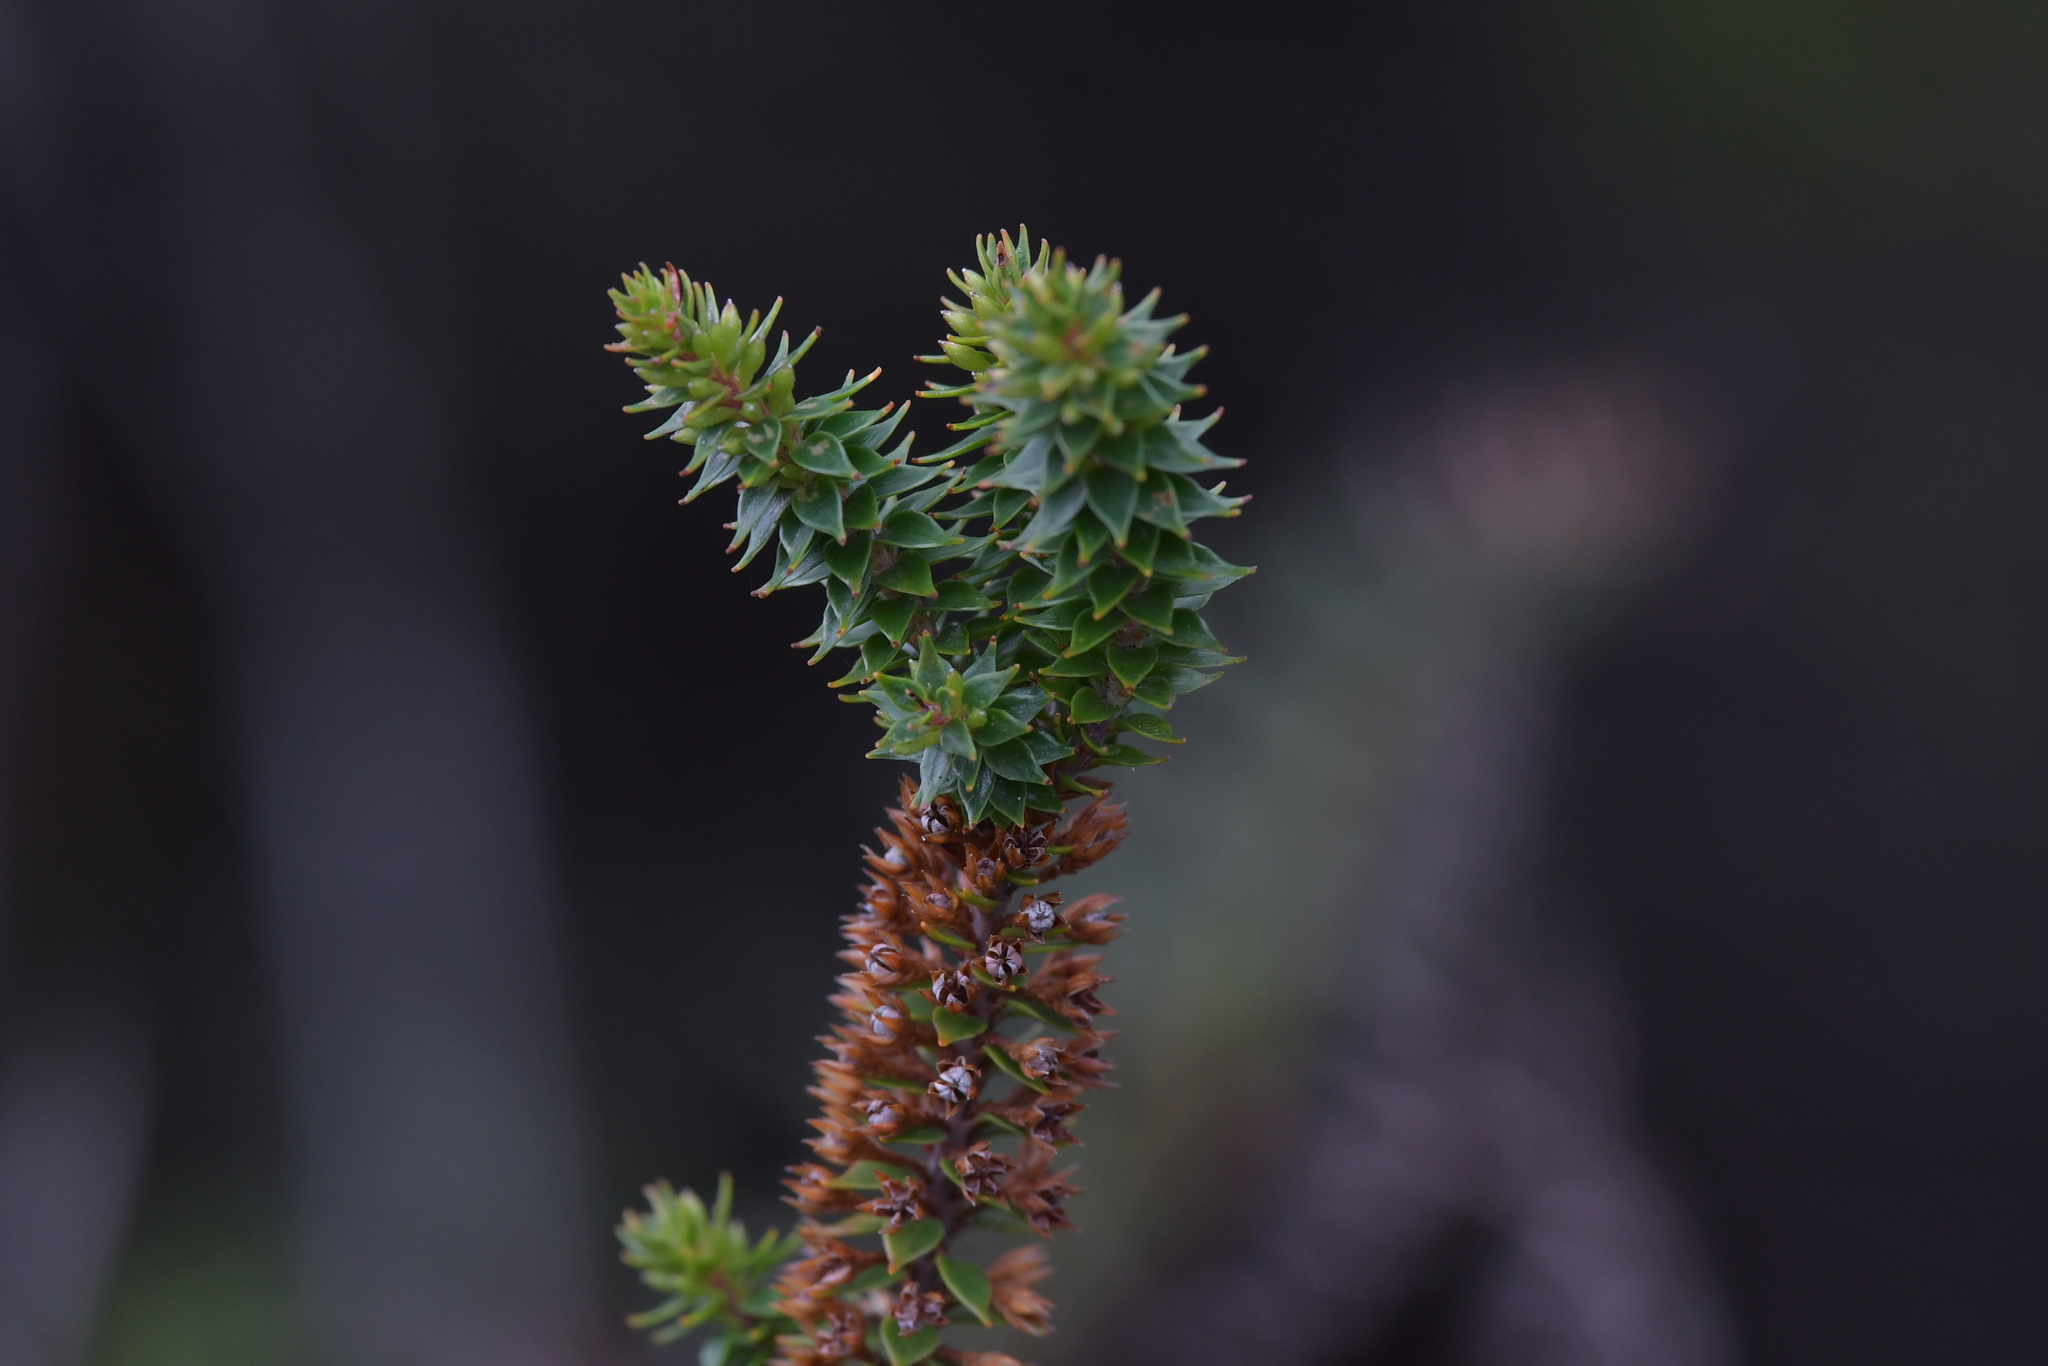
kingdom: Plantae
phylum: Tracheophyta
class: Magnoliopsida
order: Ericales
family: Ericaceae
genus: Epacris
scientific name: Epacris pauciflora
